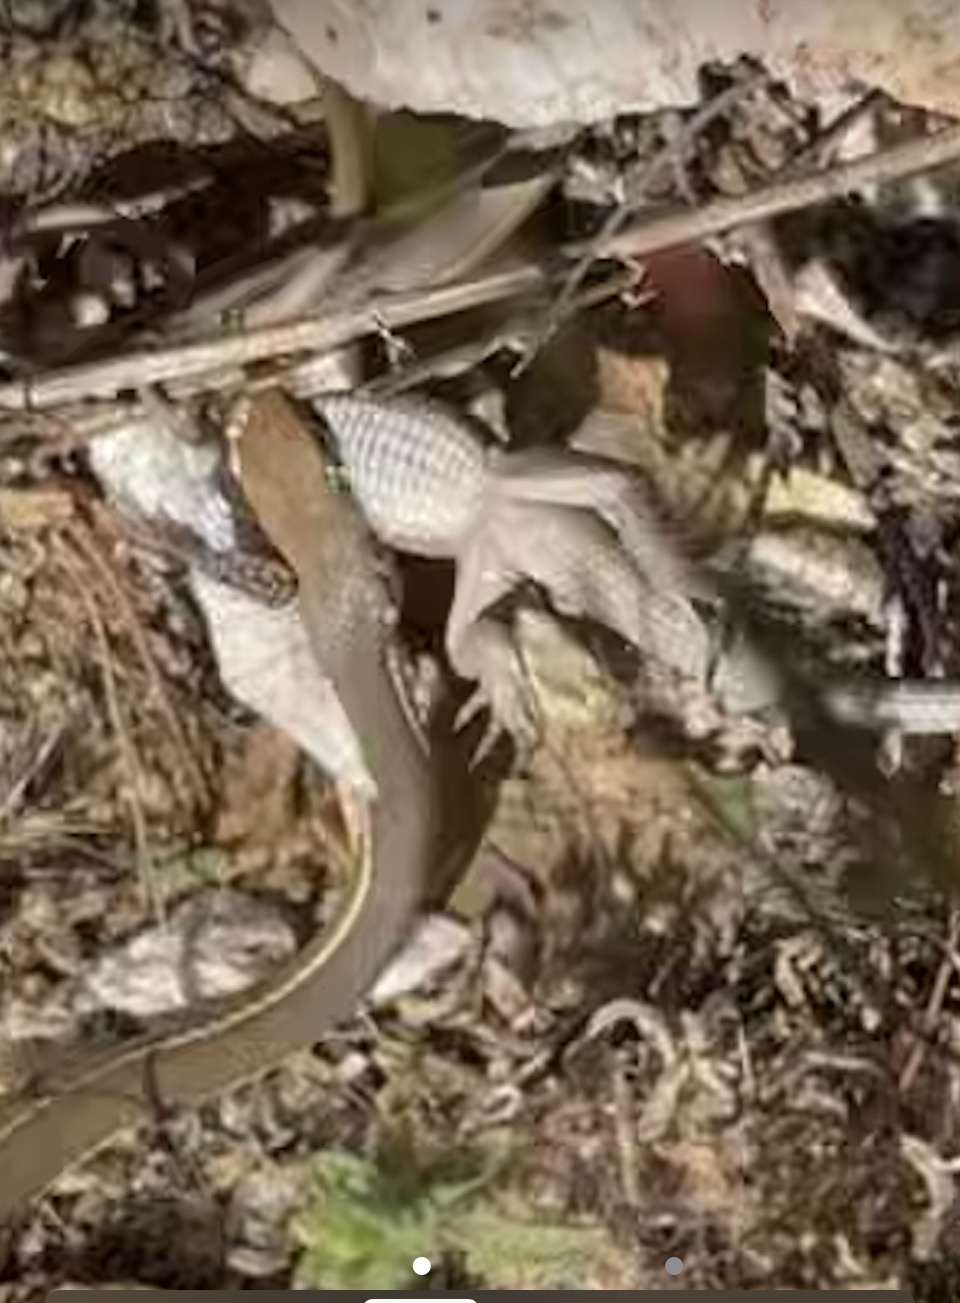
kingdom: Animalia
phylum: Chordata
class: Squamata
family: Colubridae
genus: Masticophis
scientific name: Masticophis lateralis
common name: Striped racer
